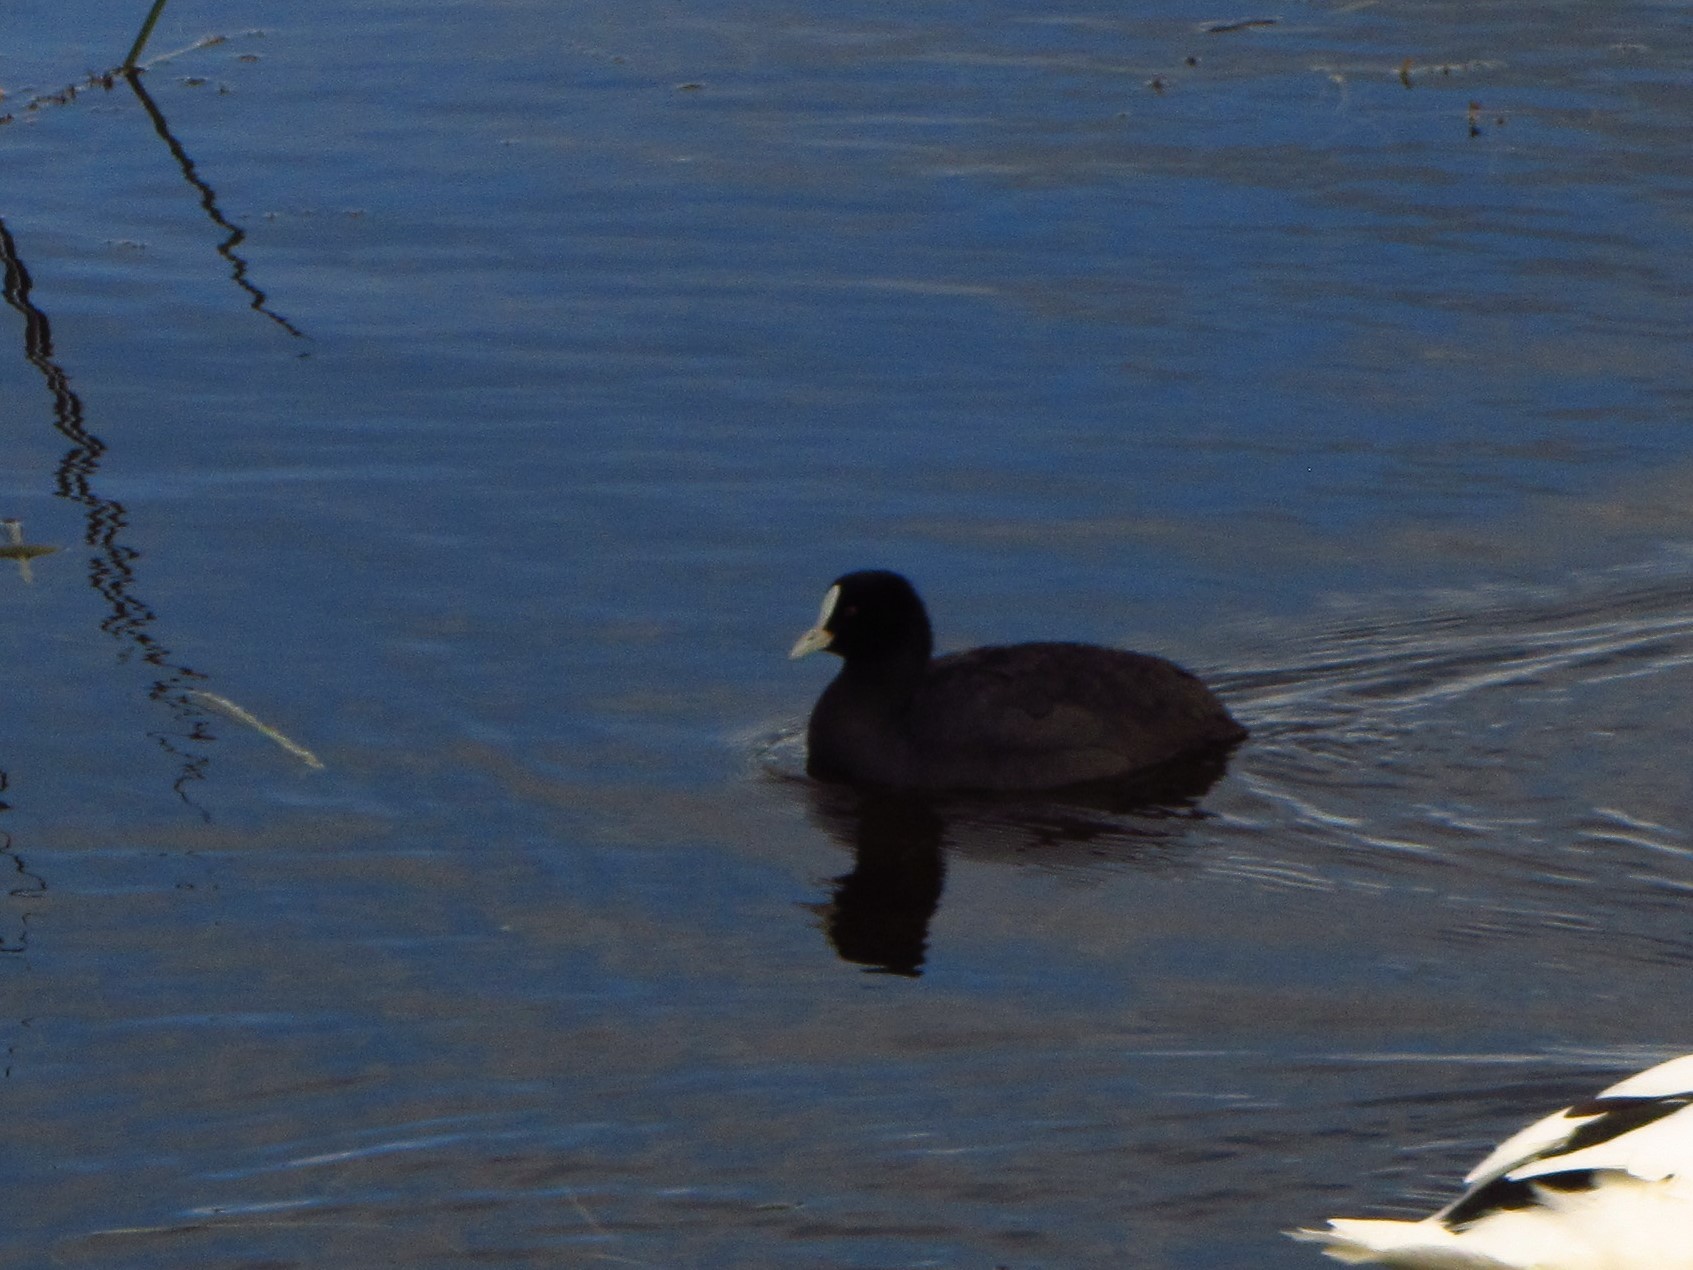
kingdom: Animalia
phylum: Chordata
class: Aves
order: Gruiformes
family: Rallidae
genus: Fulica
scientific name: Fulica atra
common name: Eurasian coot
